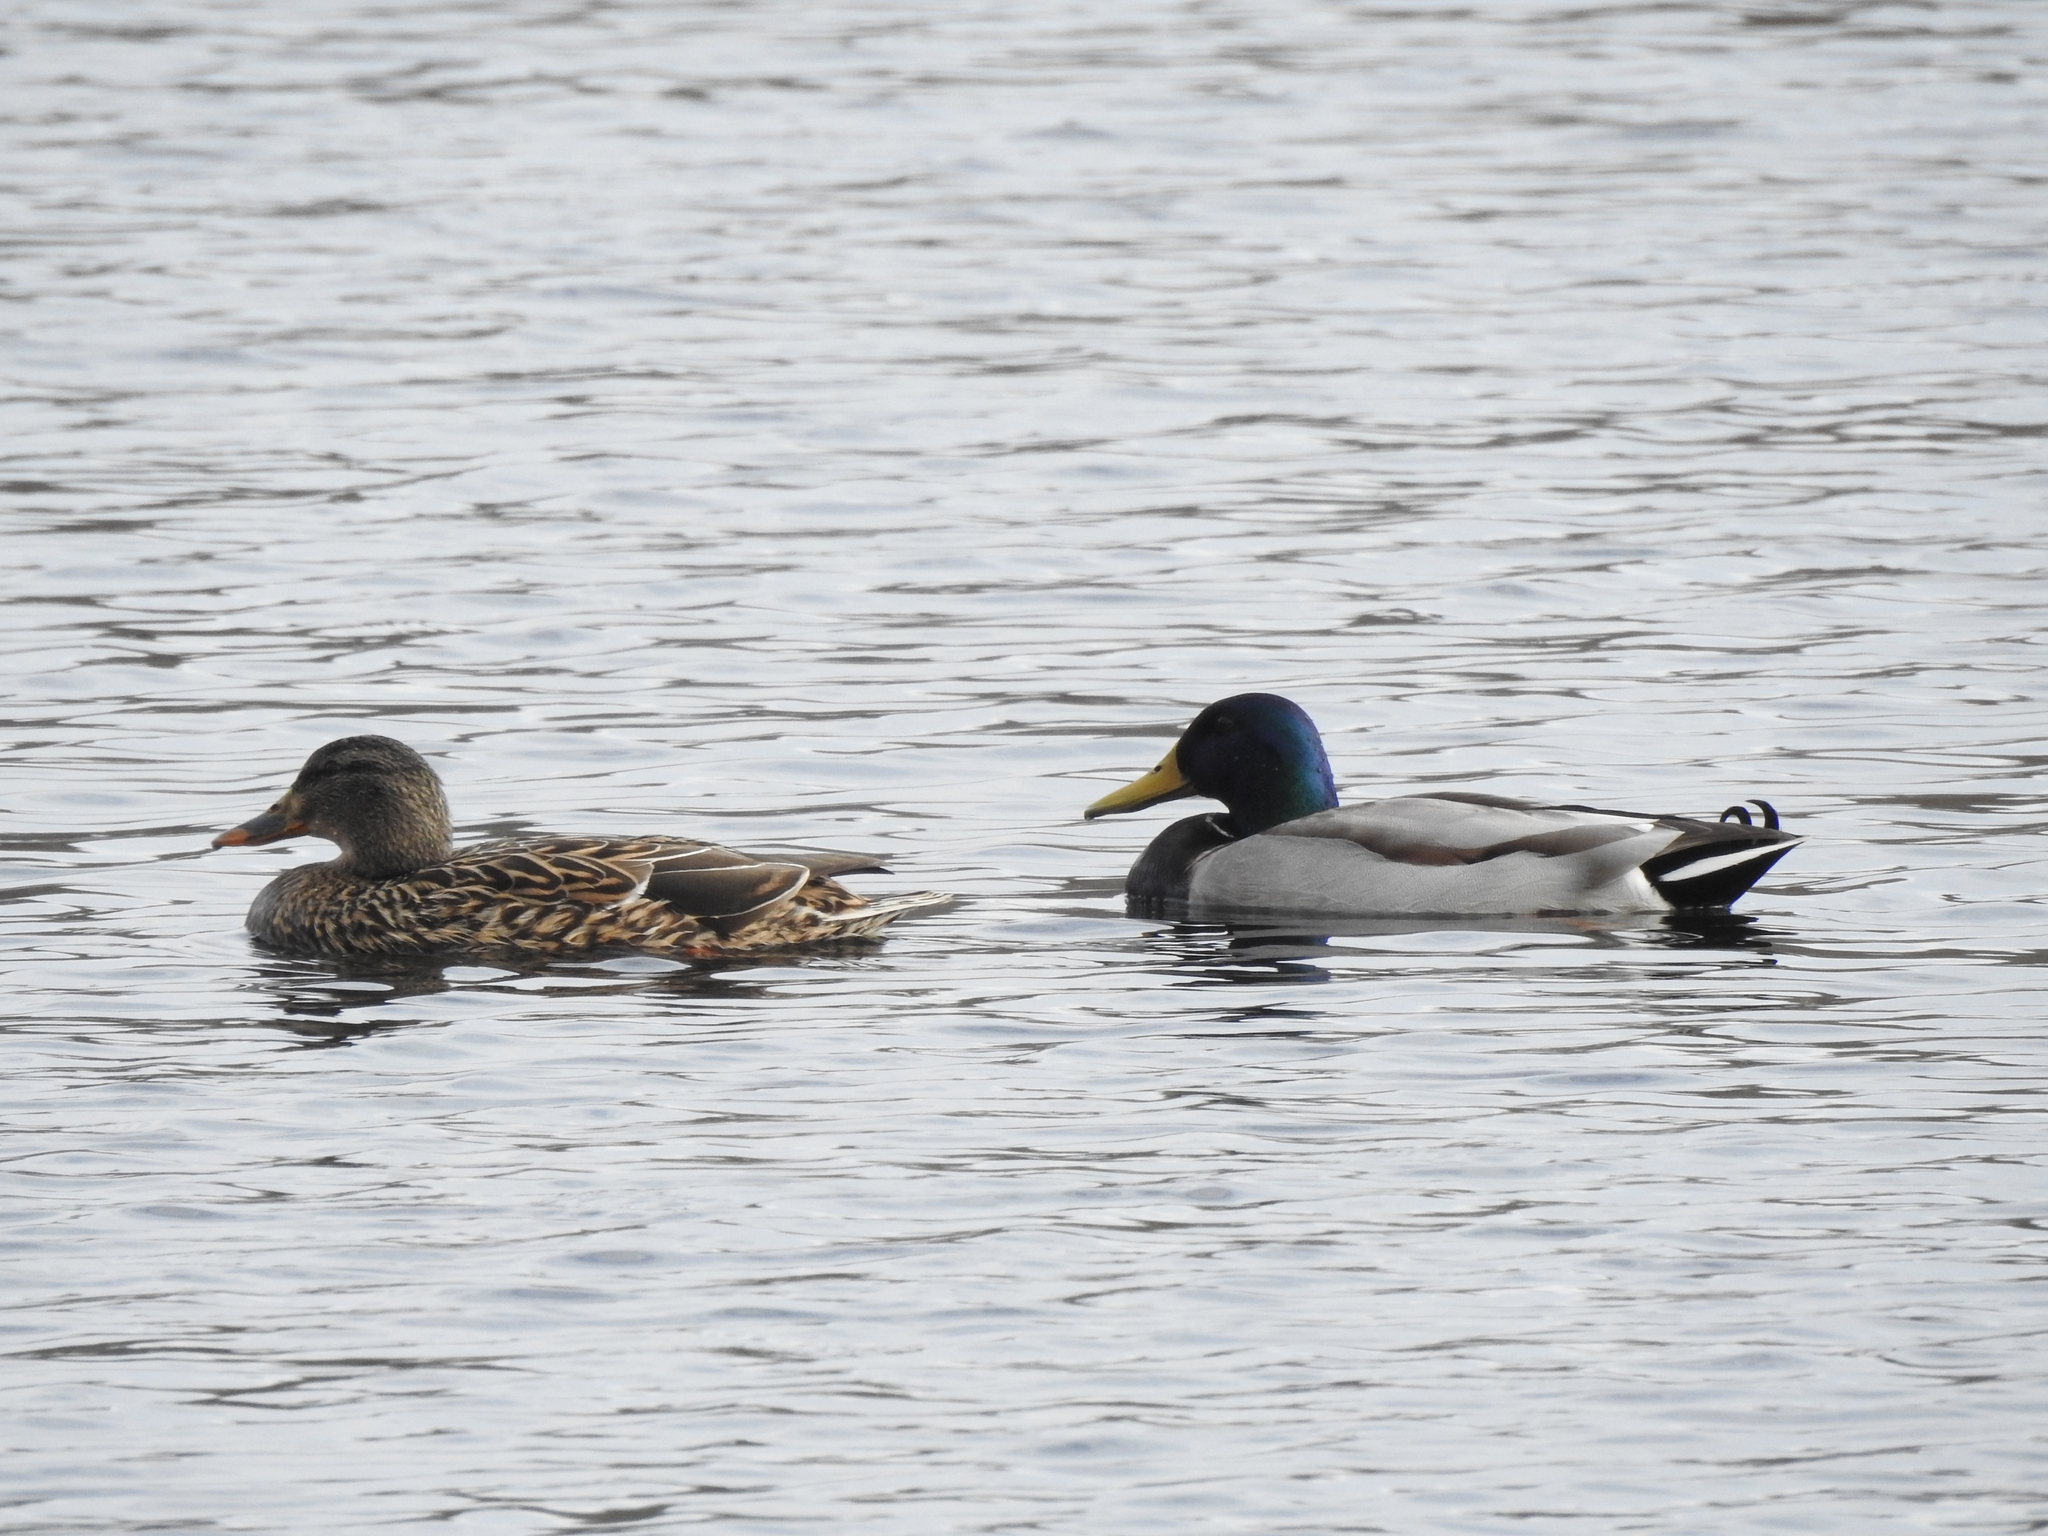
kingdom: Animalia
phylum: Chordata
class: Aves
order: Anseriformes
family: Anatidae
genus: Anas
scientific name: Anas platyrhynchos
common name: Mallard
